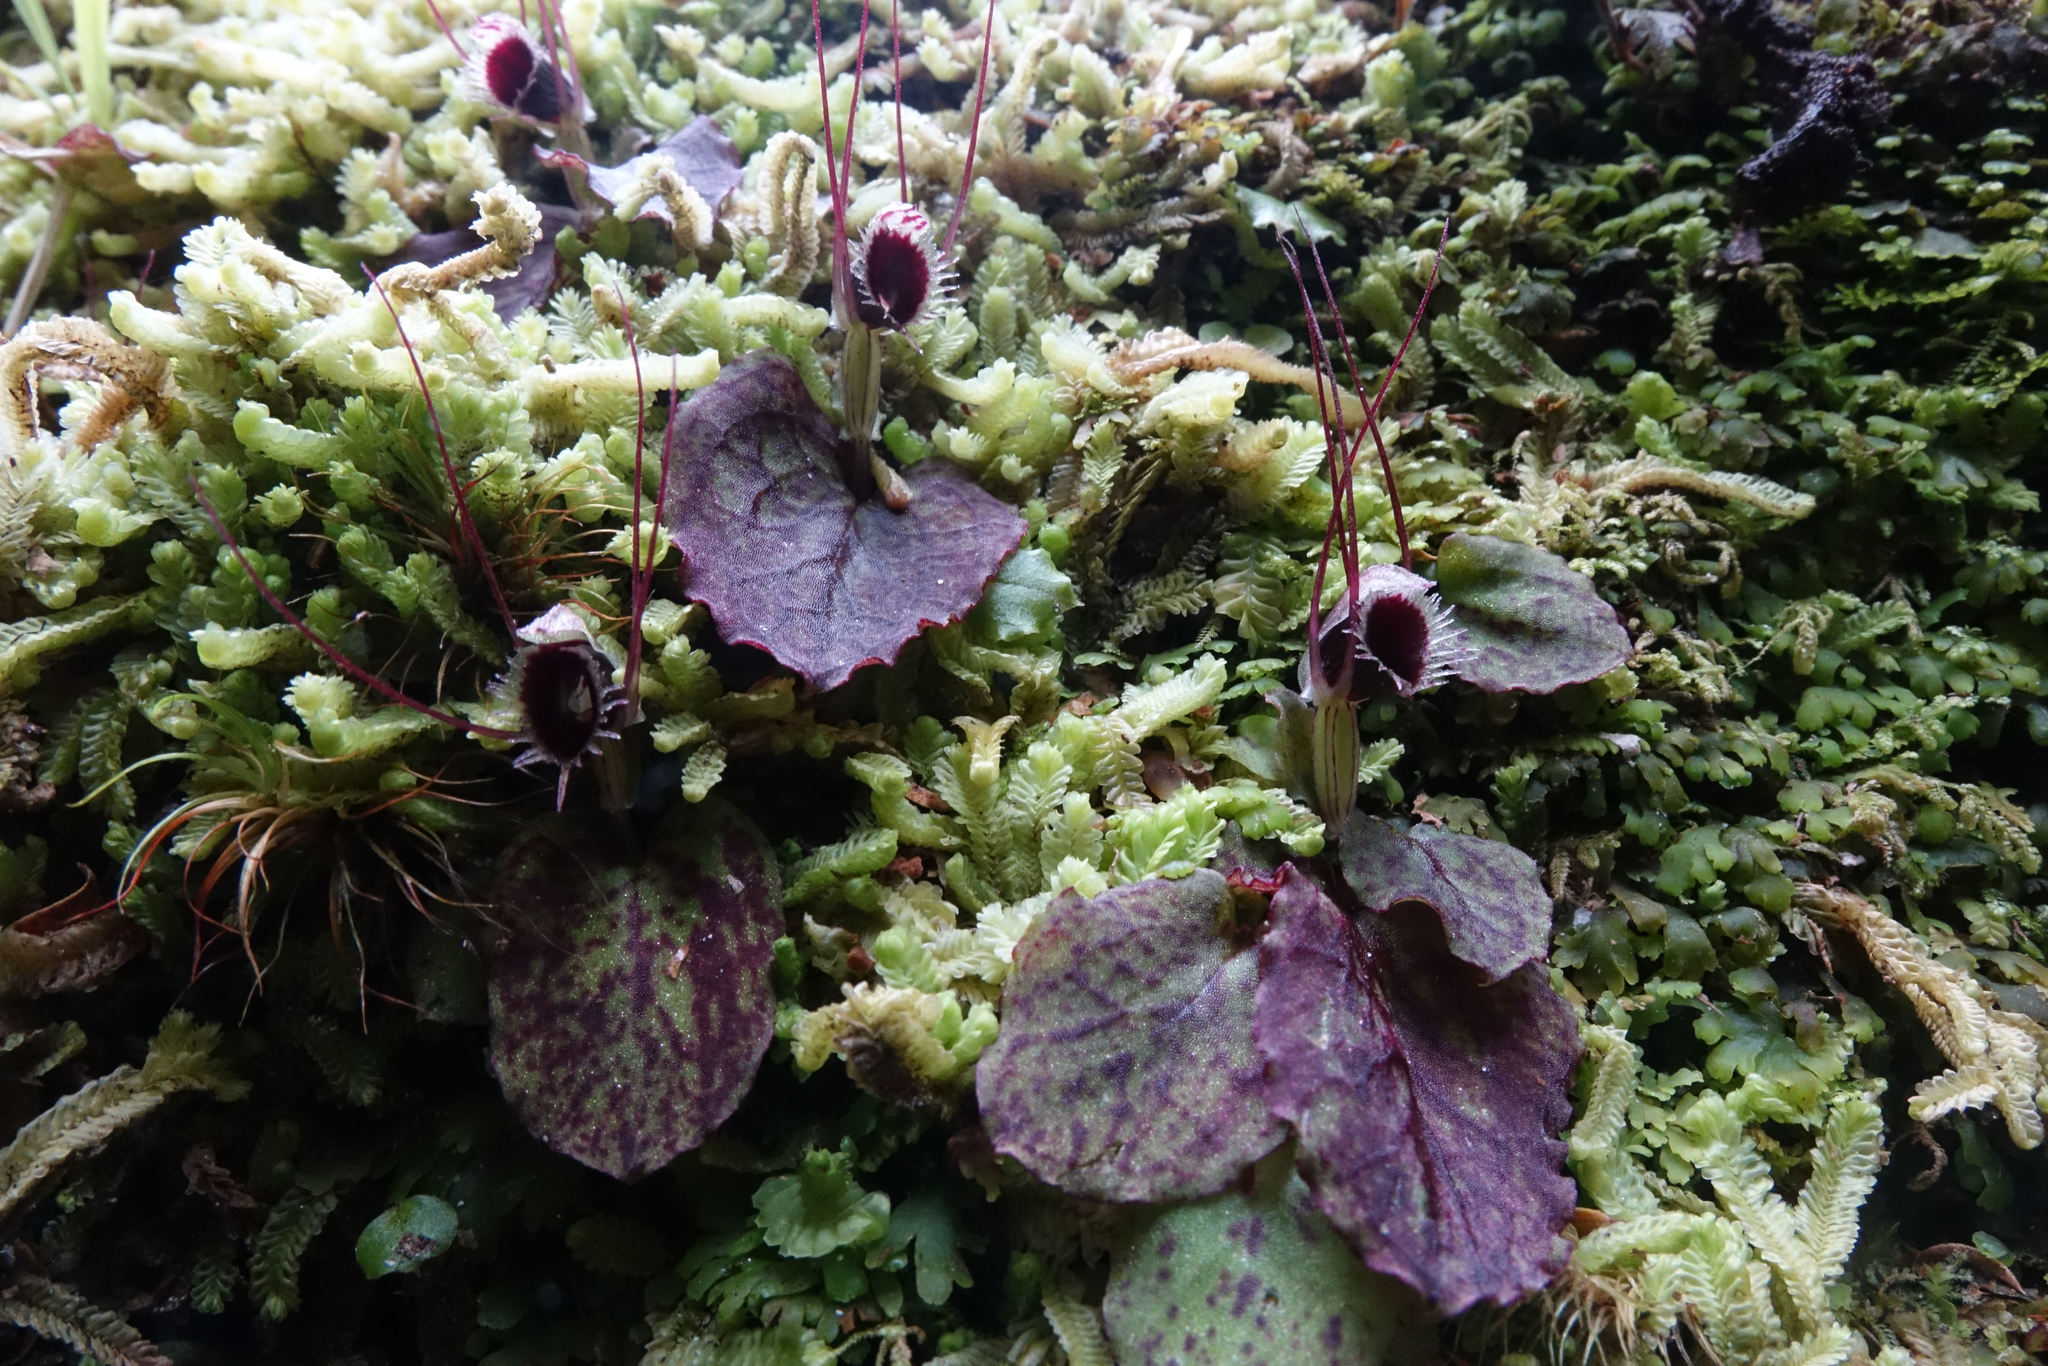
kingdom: Plantae
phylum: Tracheophyta
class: Liliopsida
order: Asparagales
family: Orchidaceae
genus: Corybas
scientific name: Corybas oblongus
